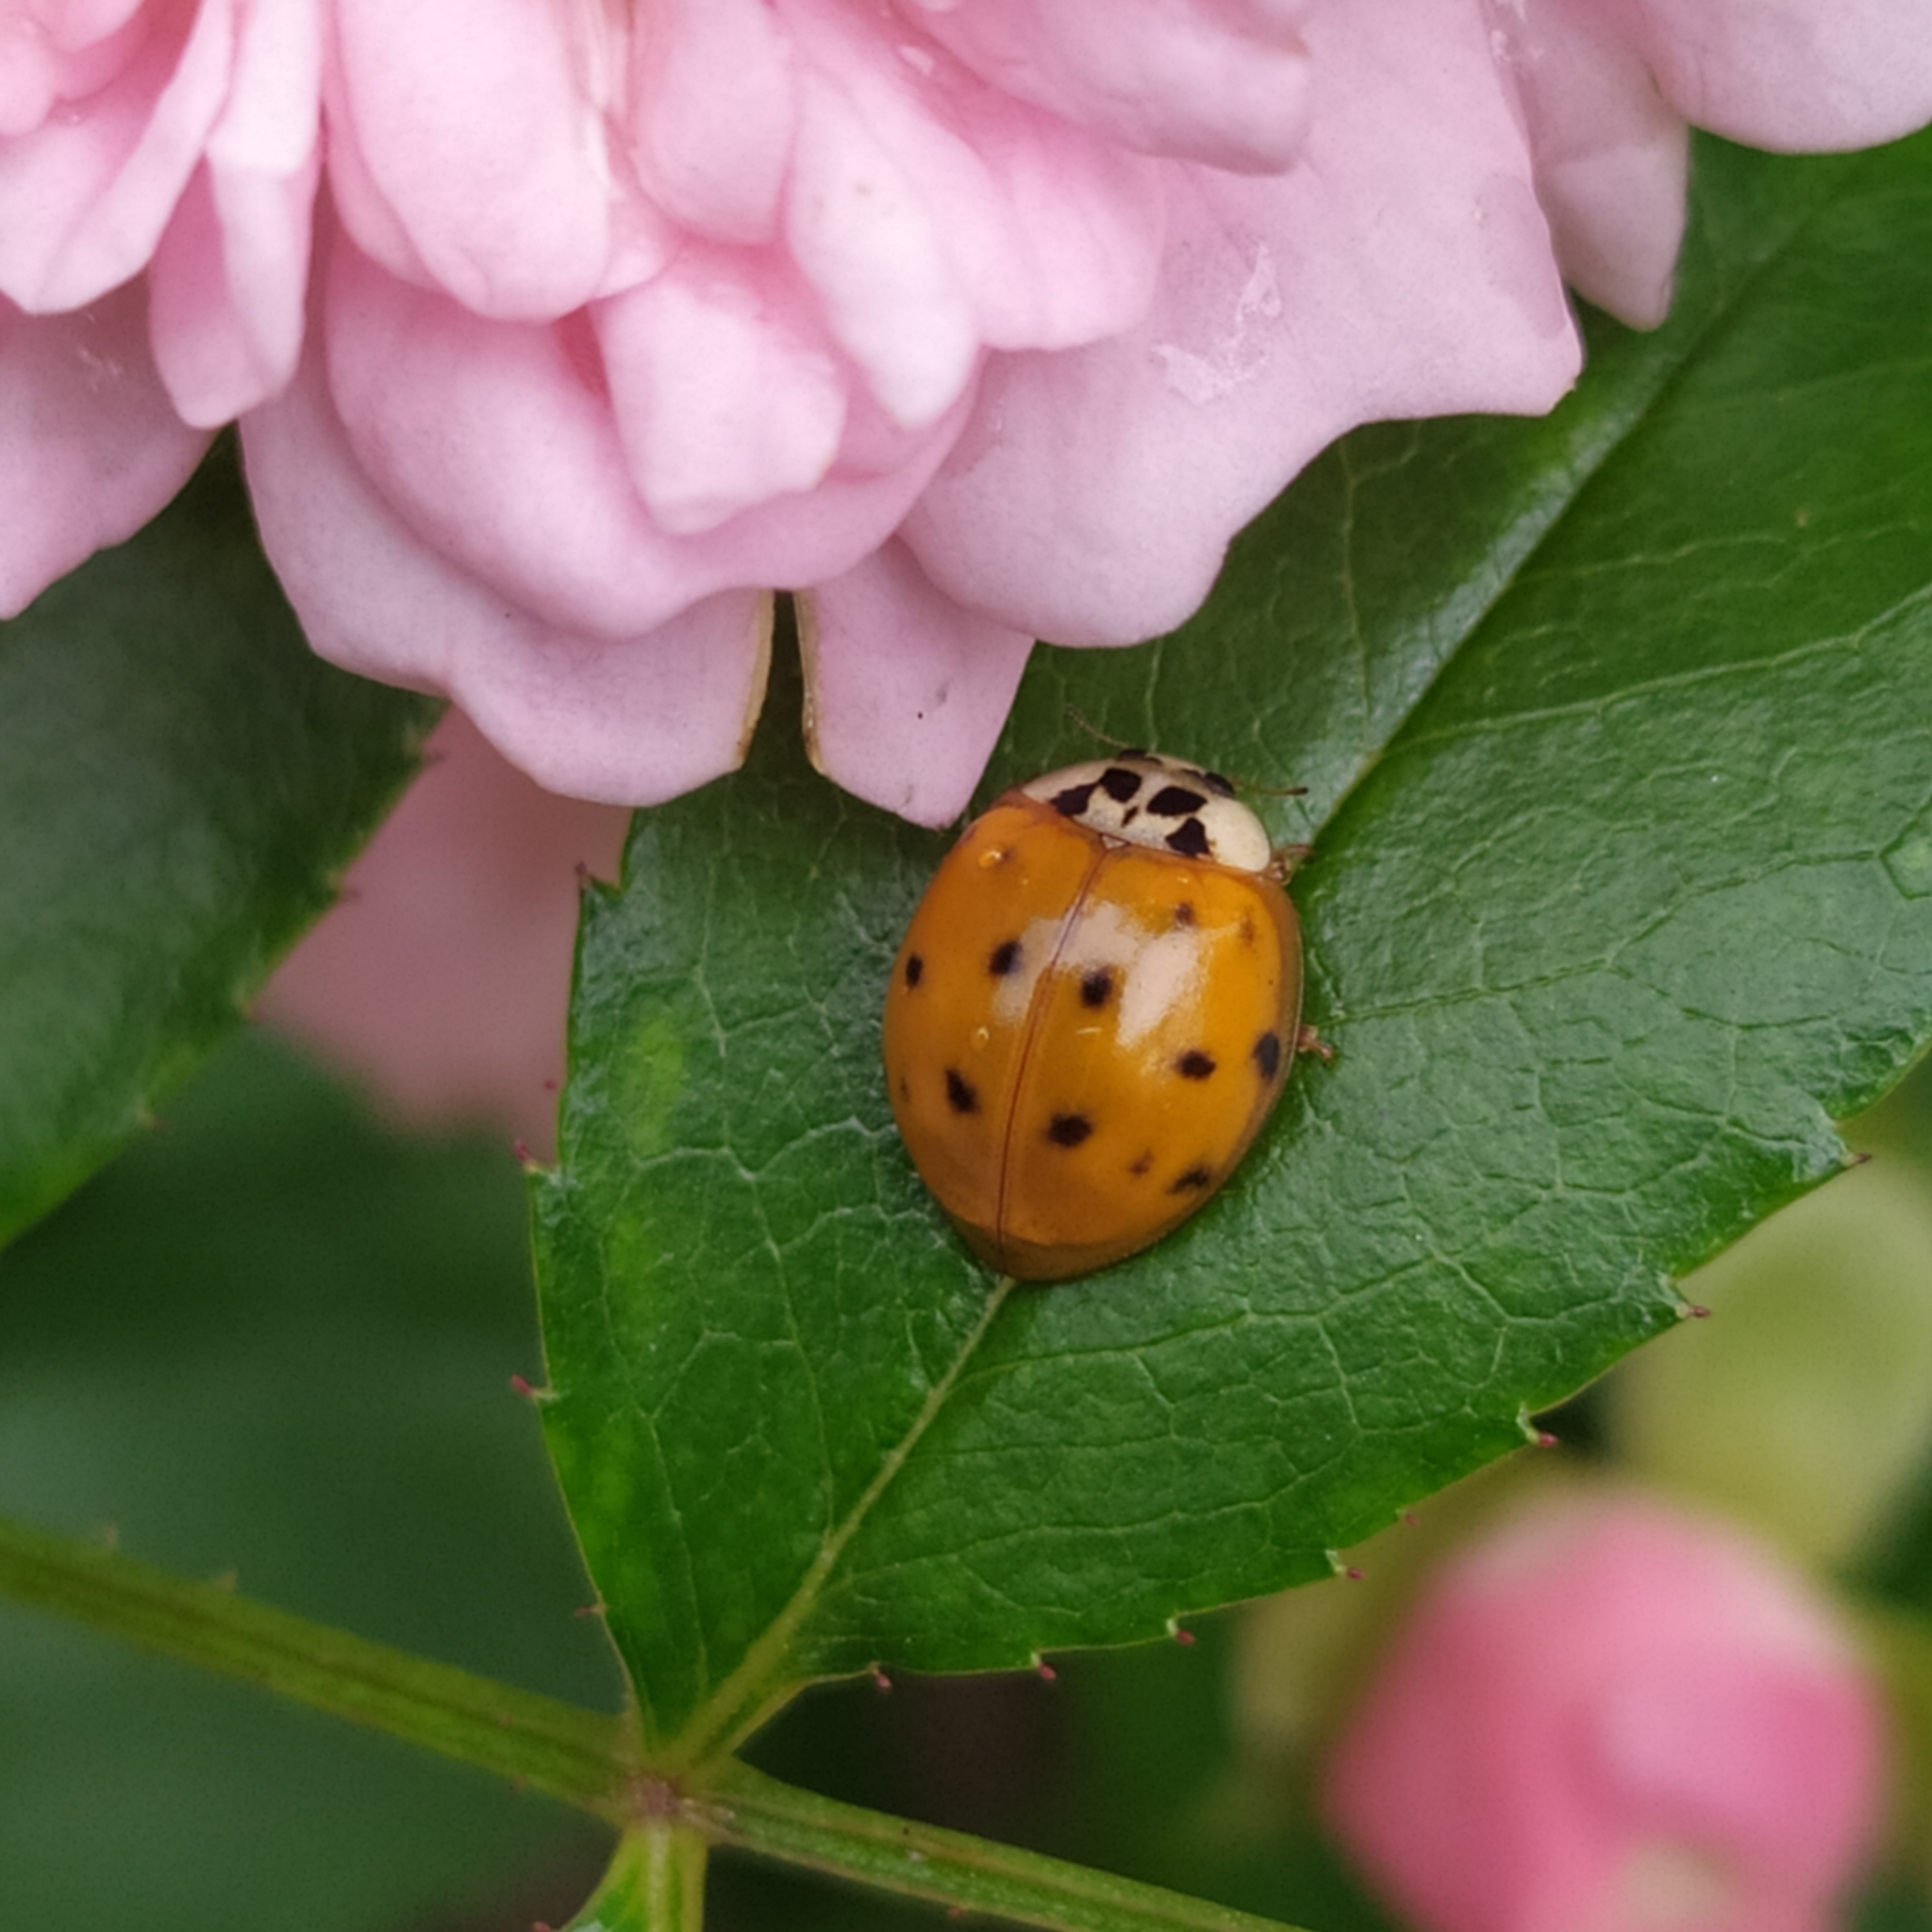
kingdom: Animalia
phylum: Arthropoda
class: Insecta
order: Coleoptera
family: Coccinellidae
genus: Harmonia
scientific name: Harmonia axyridis
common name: Harlequin ladybird
